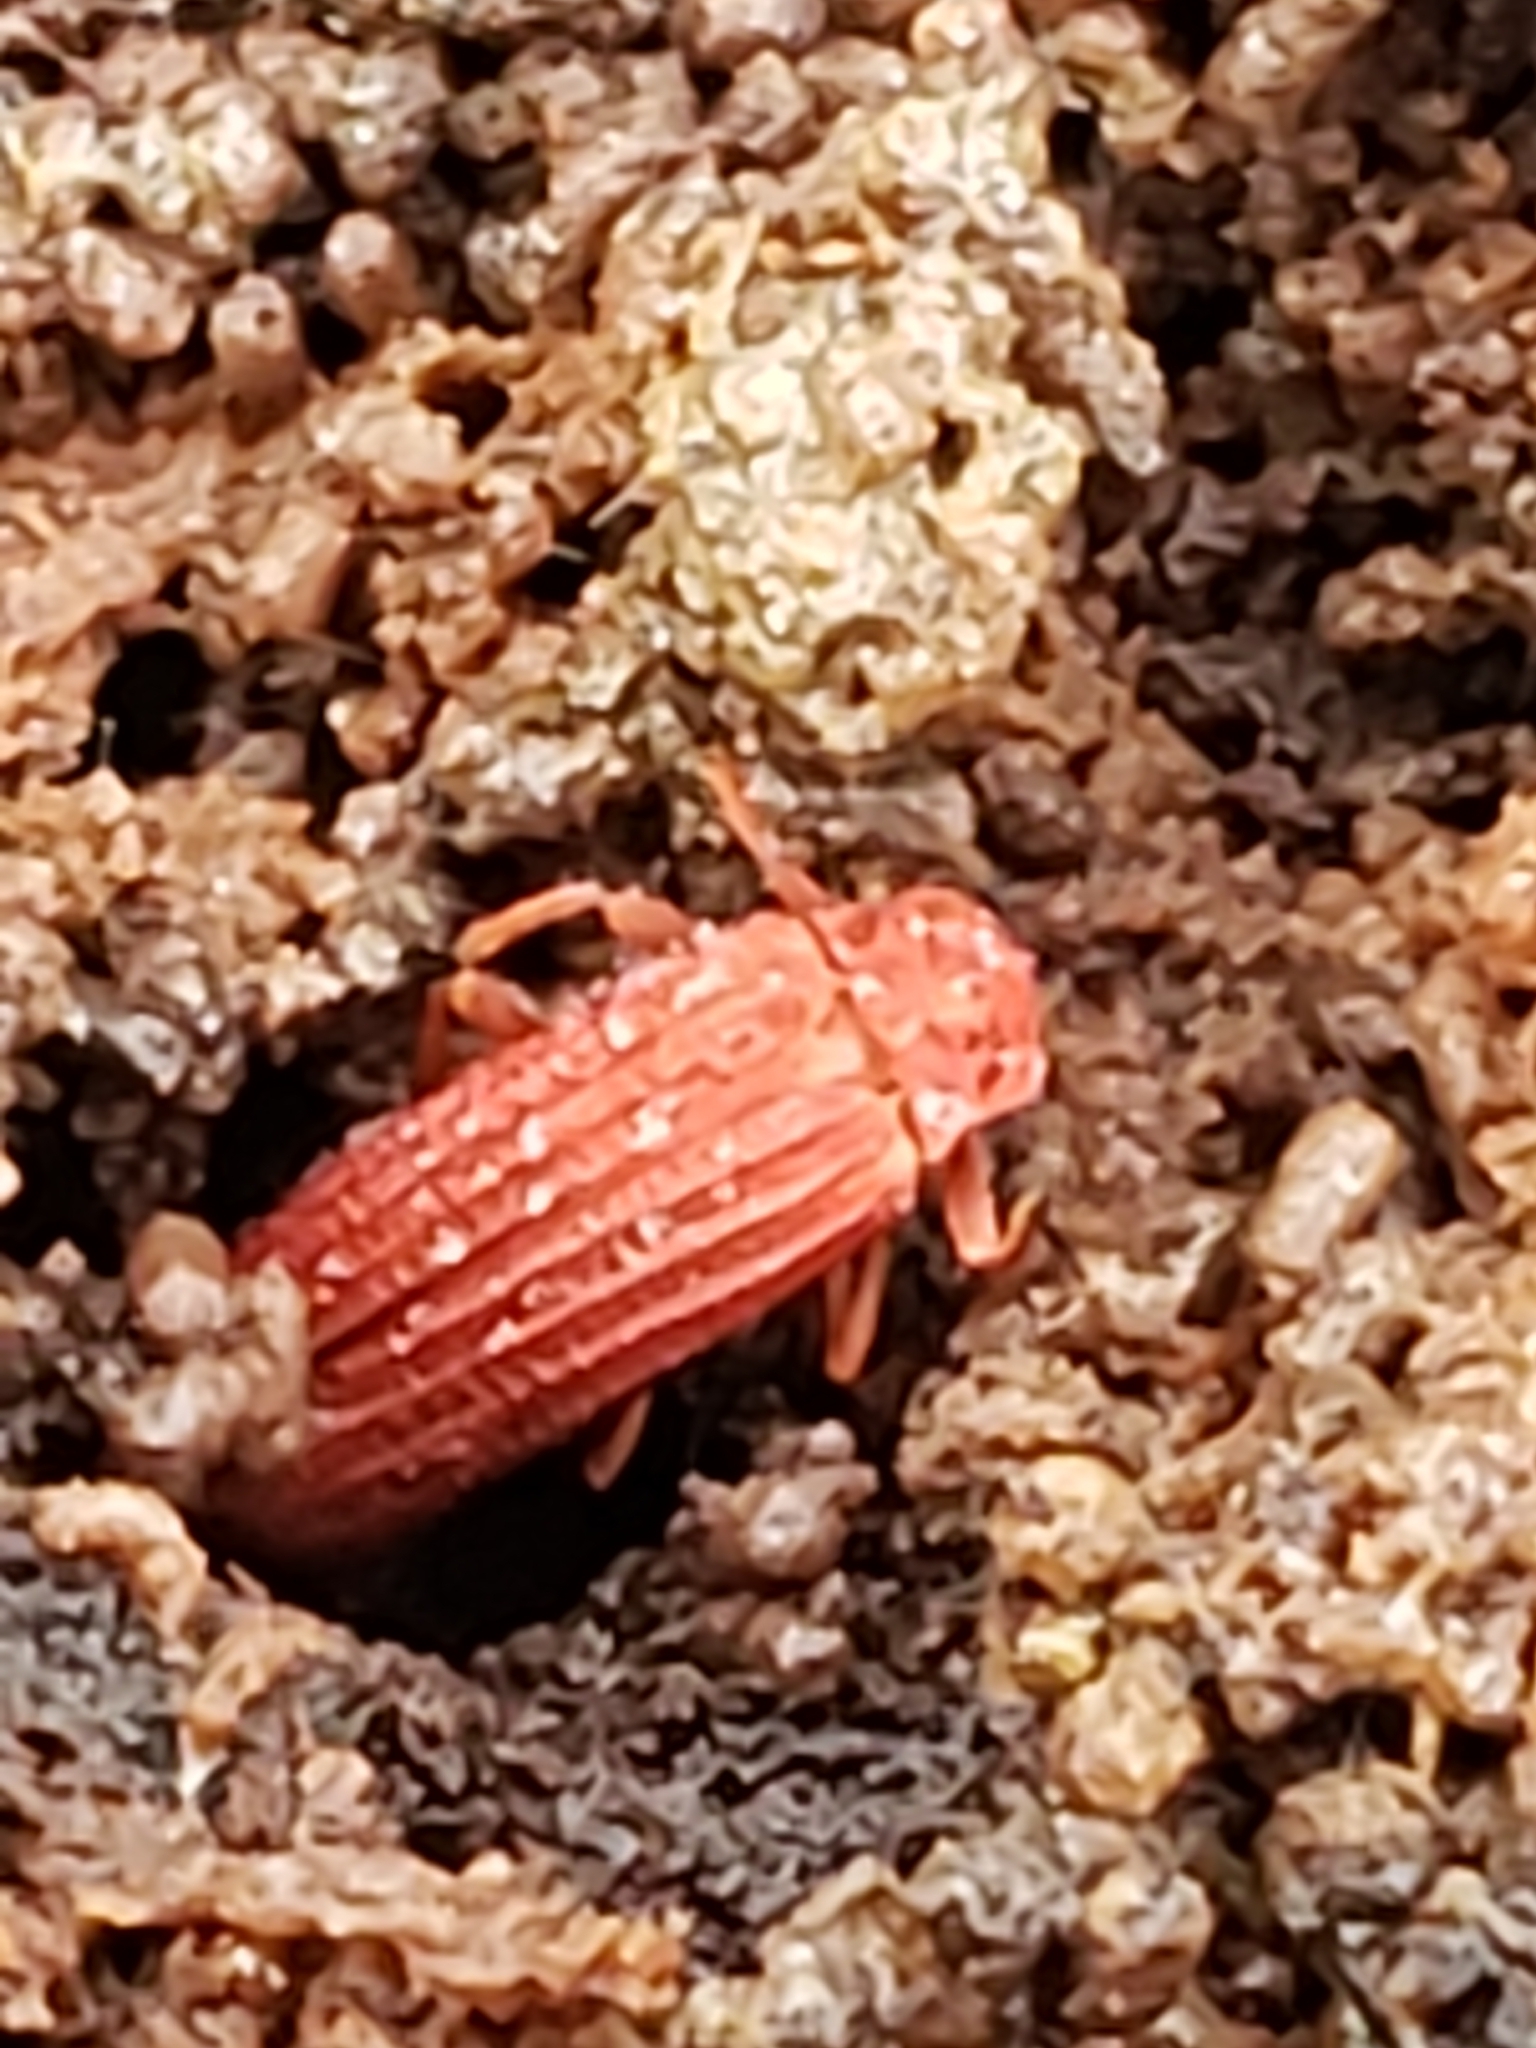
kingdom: Animalia
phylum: Arthropoda
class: Insecta
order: Coleoptera
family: Lycidae
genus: Punicealis
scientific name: Punicealis
